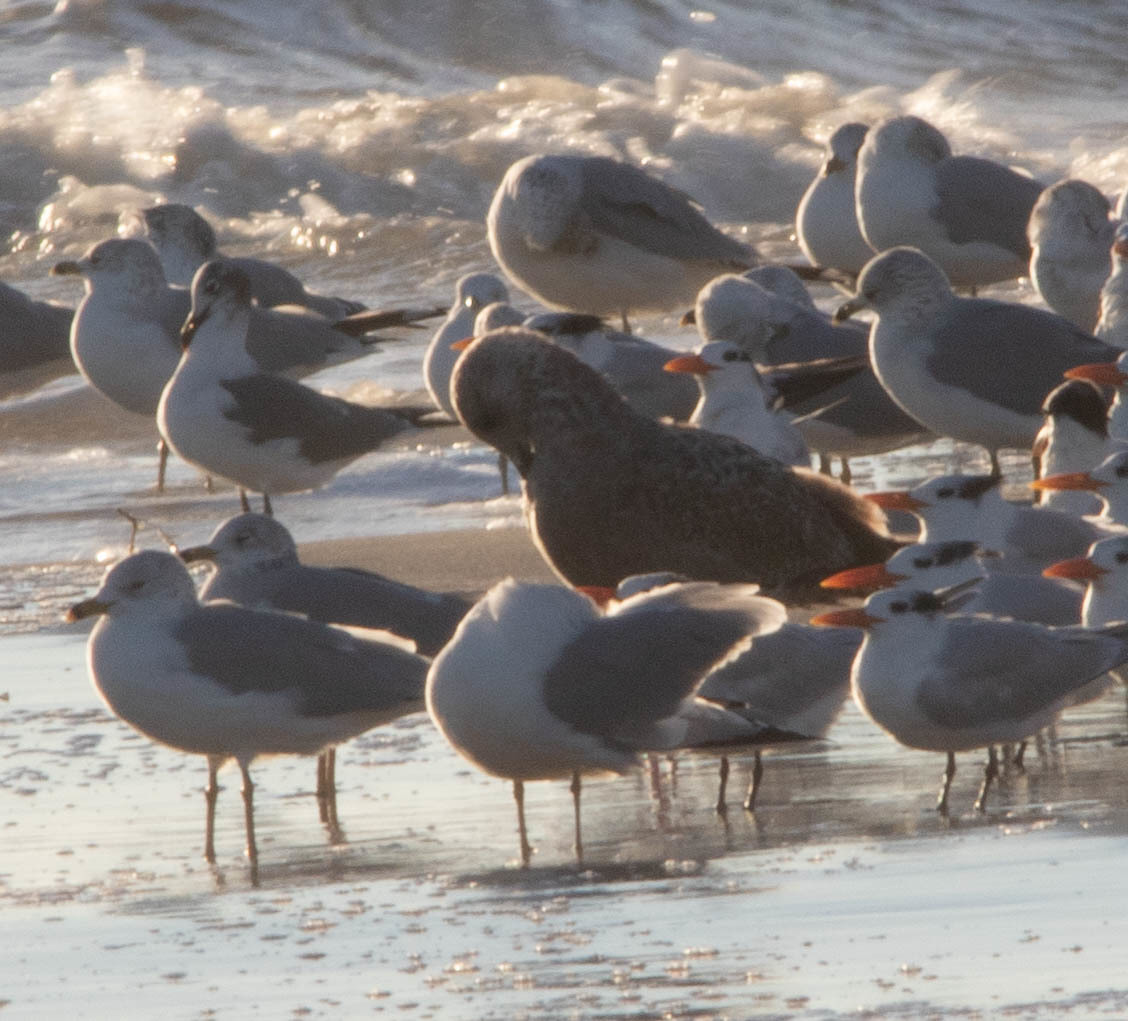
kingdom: Animalia
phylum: Chordata
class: Aves
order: Charadriiformes
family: Laridae
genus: Larus
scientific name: Larus argentatus
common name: Herring gull
